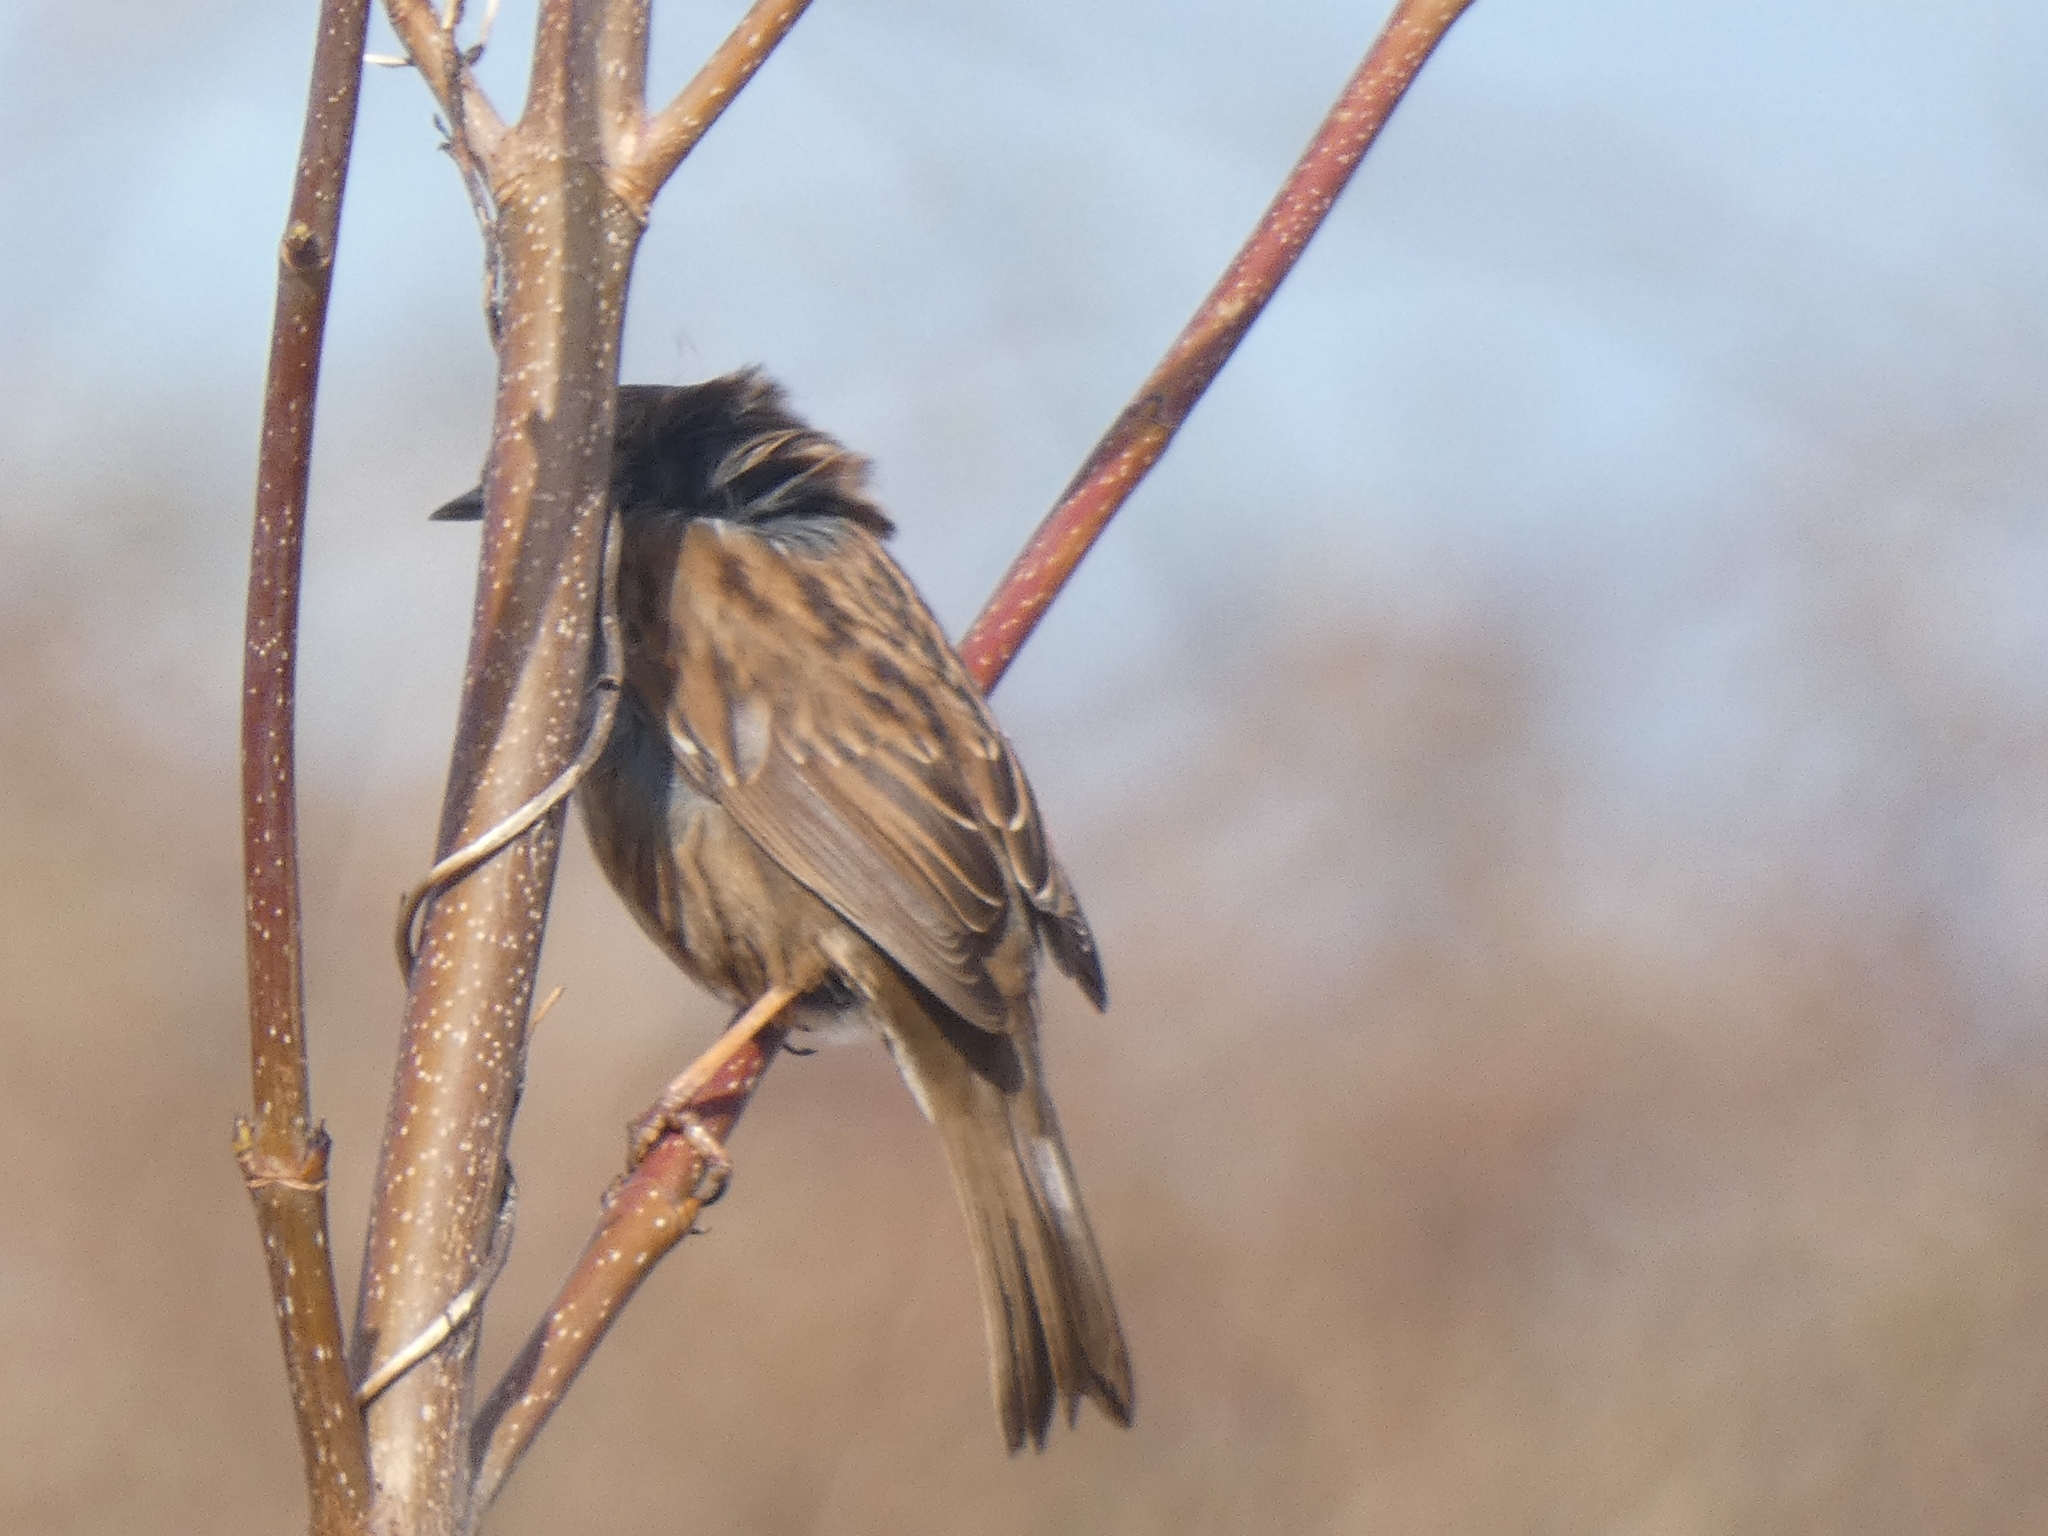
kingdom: Animalia
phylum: Chordata
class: Aves
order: Passeriformes
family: Prunellidae
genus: Prunella
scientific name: Prunella modularis
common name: Dunnock
